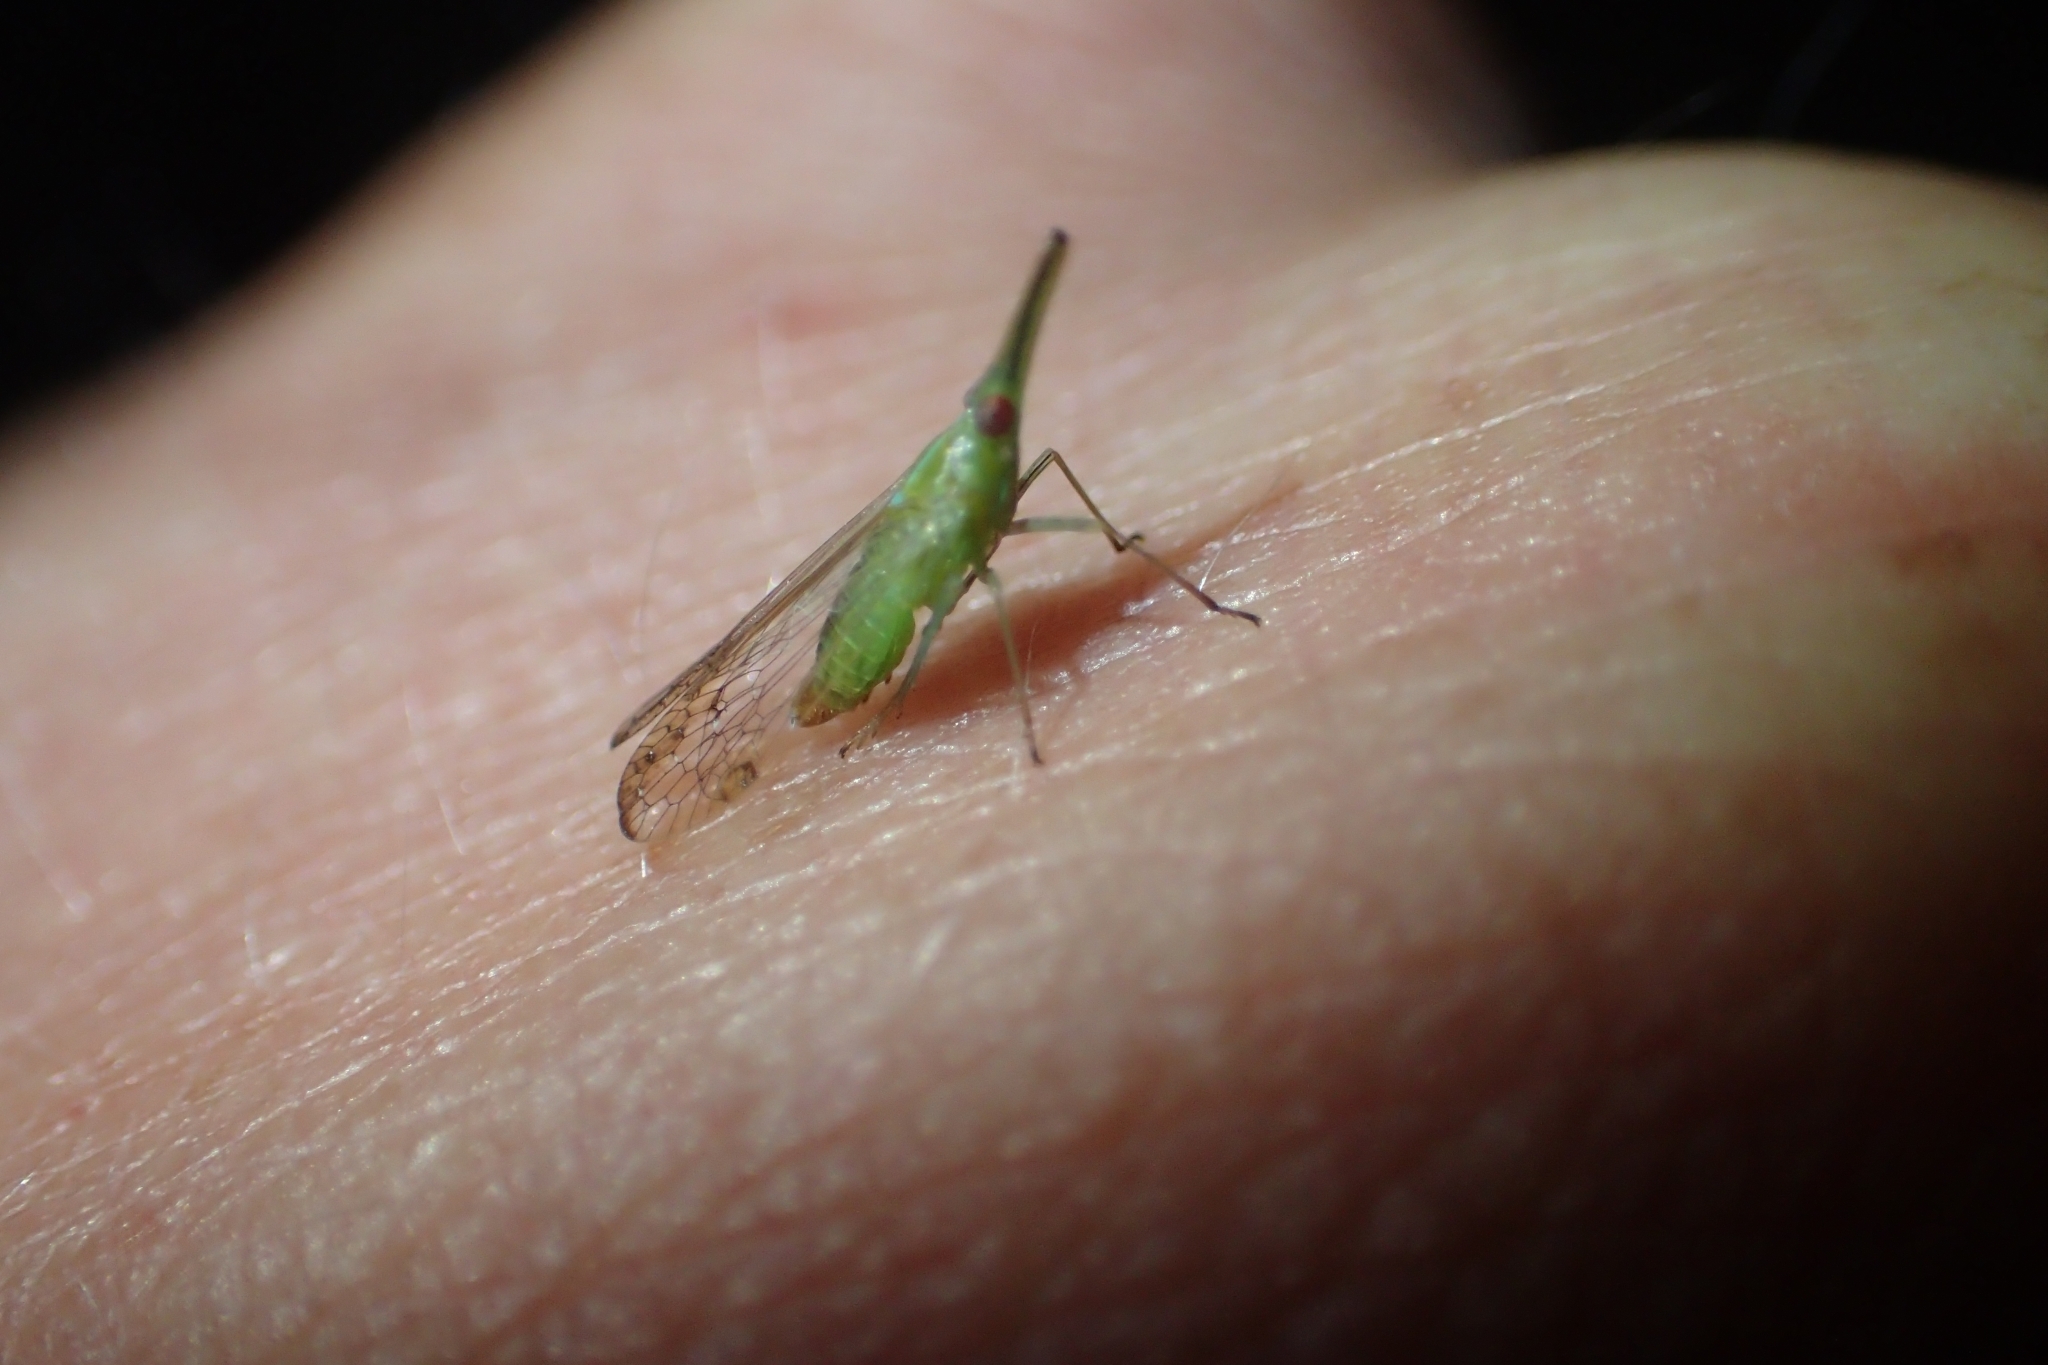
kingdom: Animalia
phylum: Arthropoda
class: Insecta
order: Hemiptera
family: Dictyopharidae
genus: Thanatodictya
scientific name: Thanatodictya tillyardi
